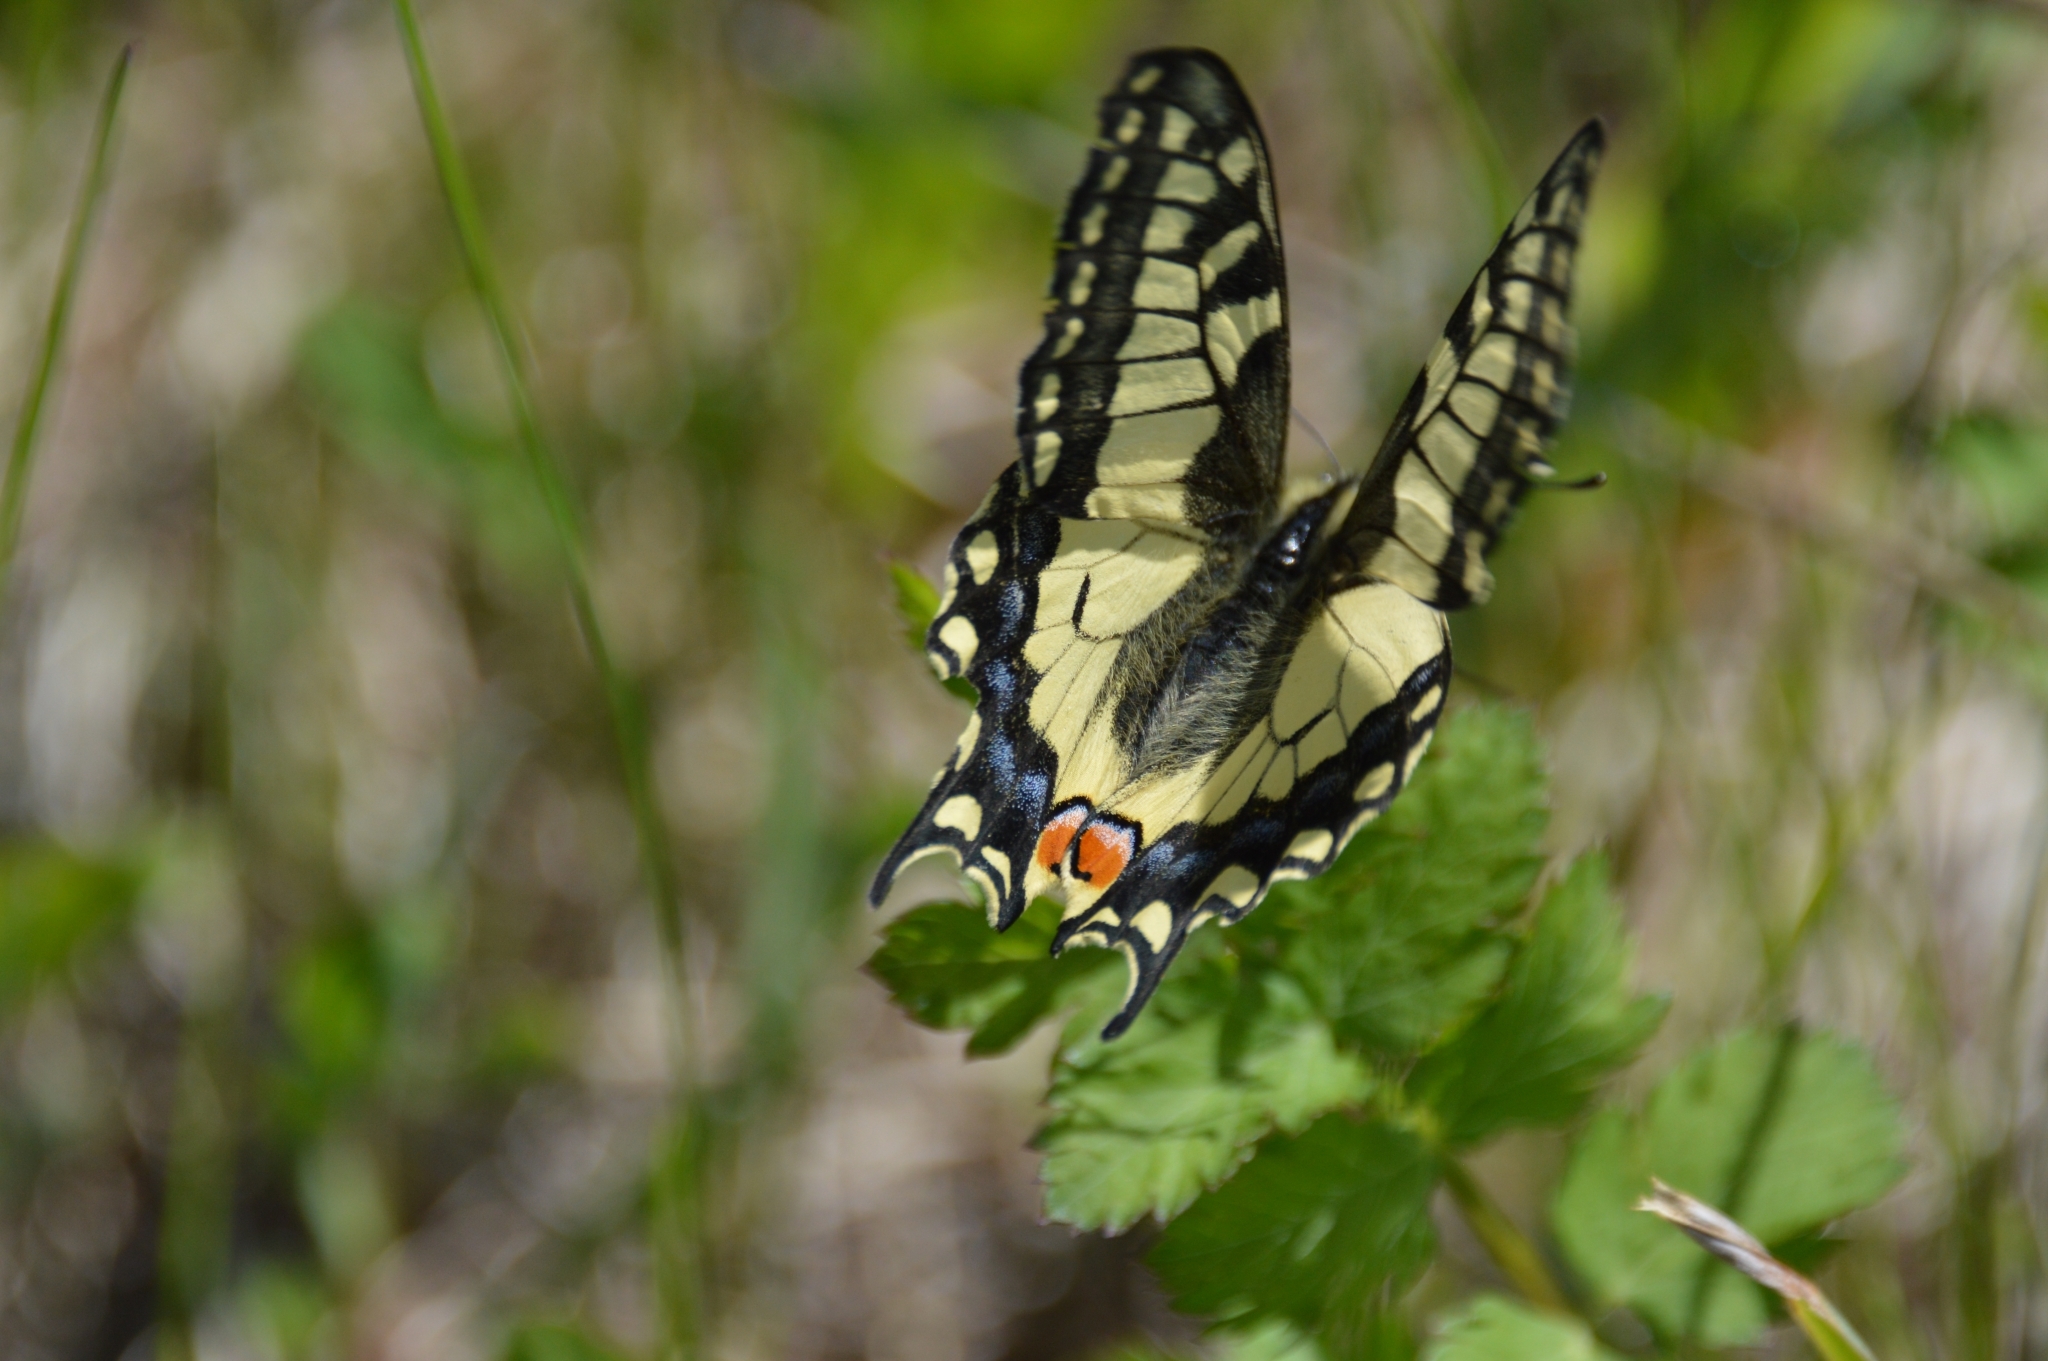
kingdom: Animalia
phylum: Arthropoda
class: Insecta
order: Lepidoptera
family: Papilionidae
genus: Papilio
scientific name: Papilio machaon
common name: Swallowtail
